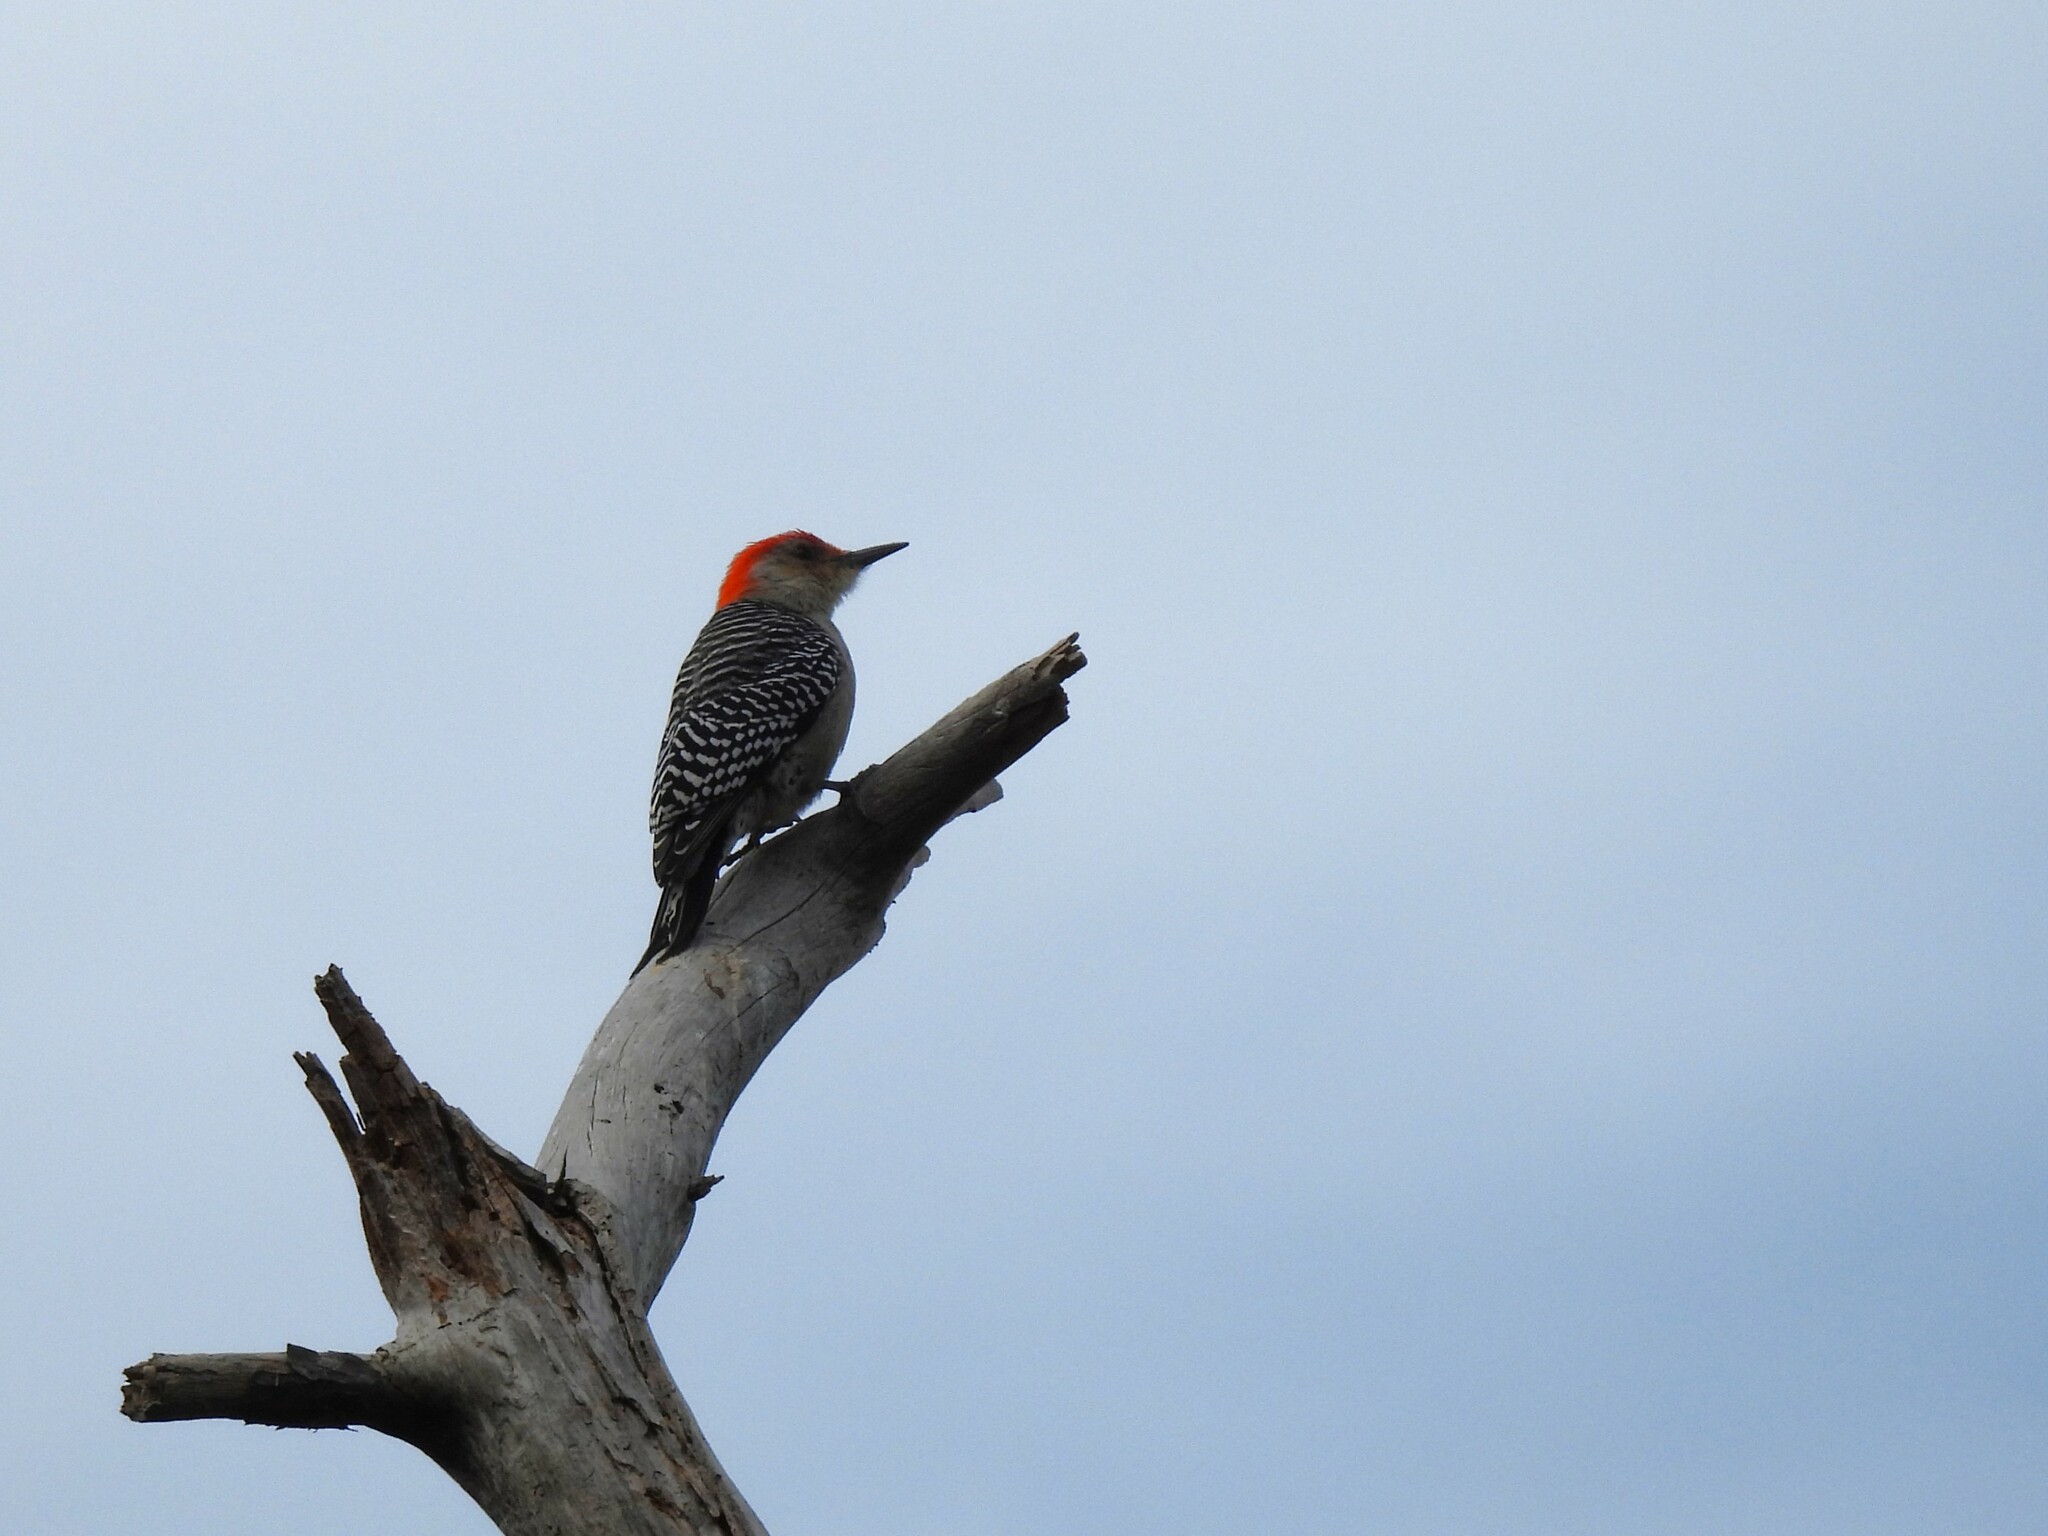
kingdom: Animalia
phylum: Chordata
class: Aves
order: Piciformes
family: Picidae
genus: Melanerpes
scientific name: Melanerpes carolinus
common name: Red-bellied woodpecker
